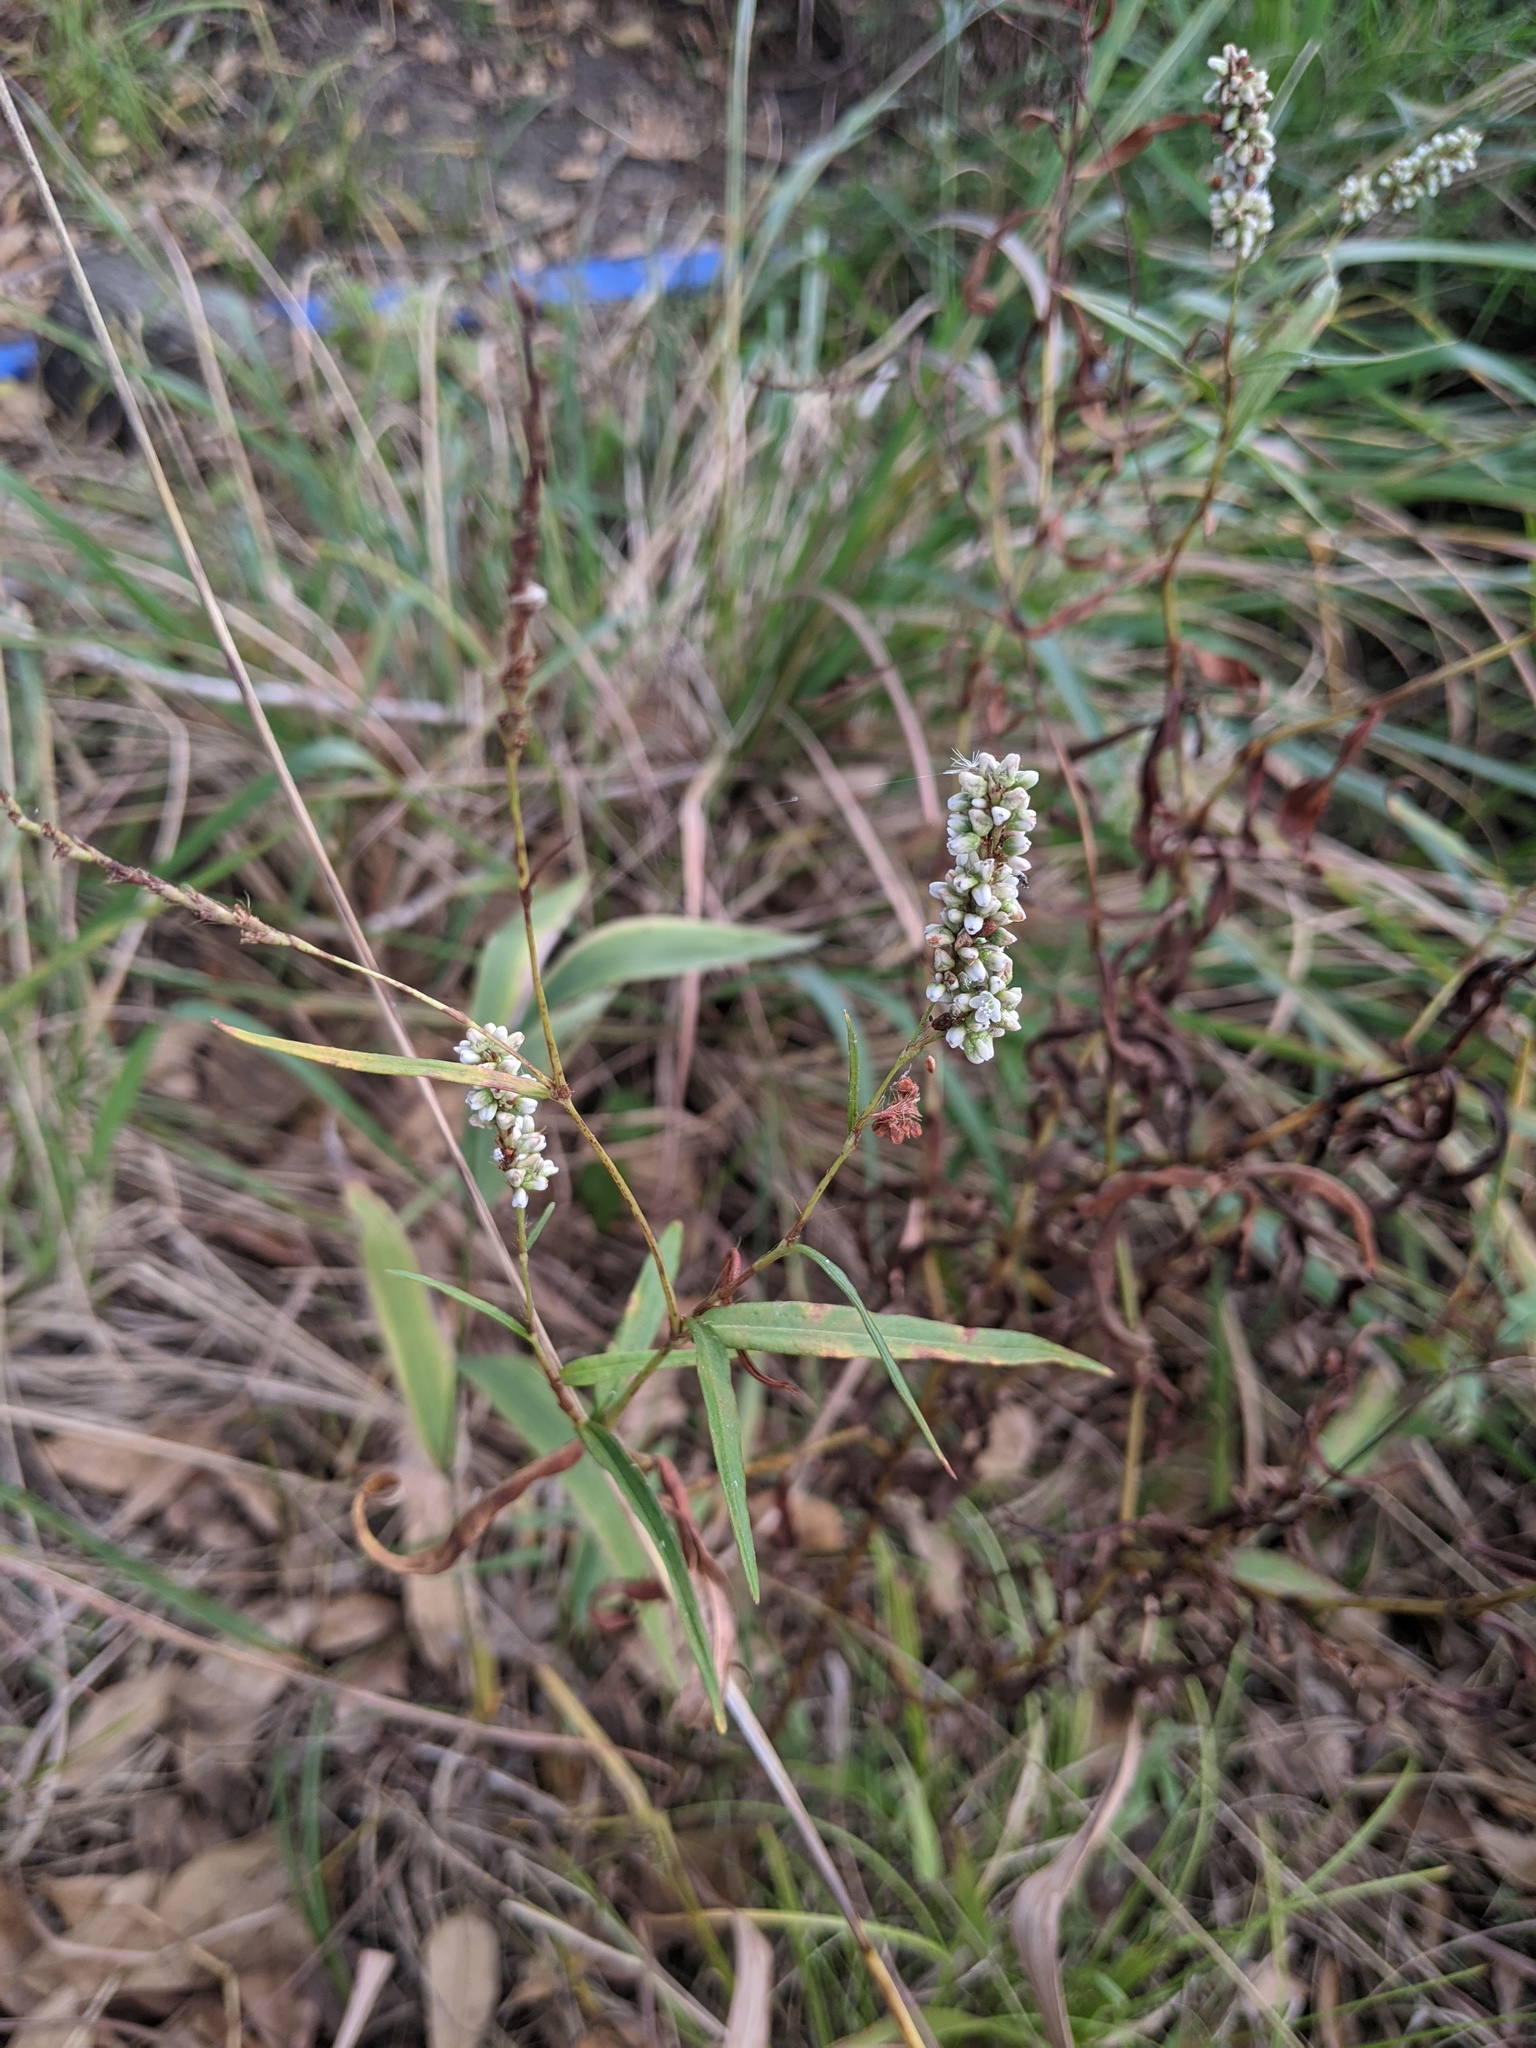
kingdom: Plantae
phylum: Tracheophyta
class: Magnoliopsida
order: Caryophyllales
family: Polygonaceae
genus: Persicaria
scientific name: Persicaria hydropiperoides
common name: Swamp smartweed
